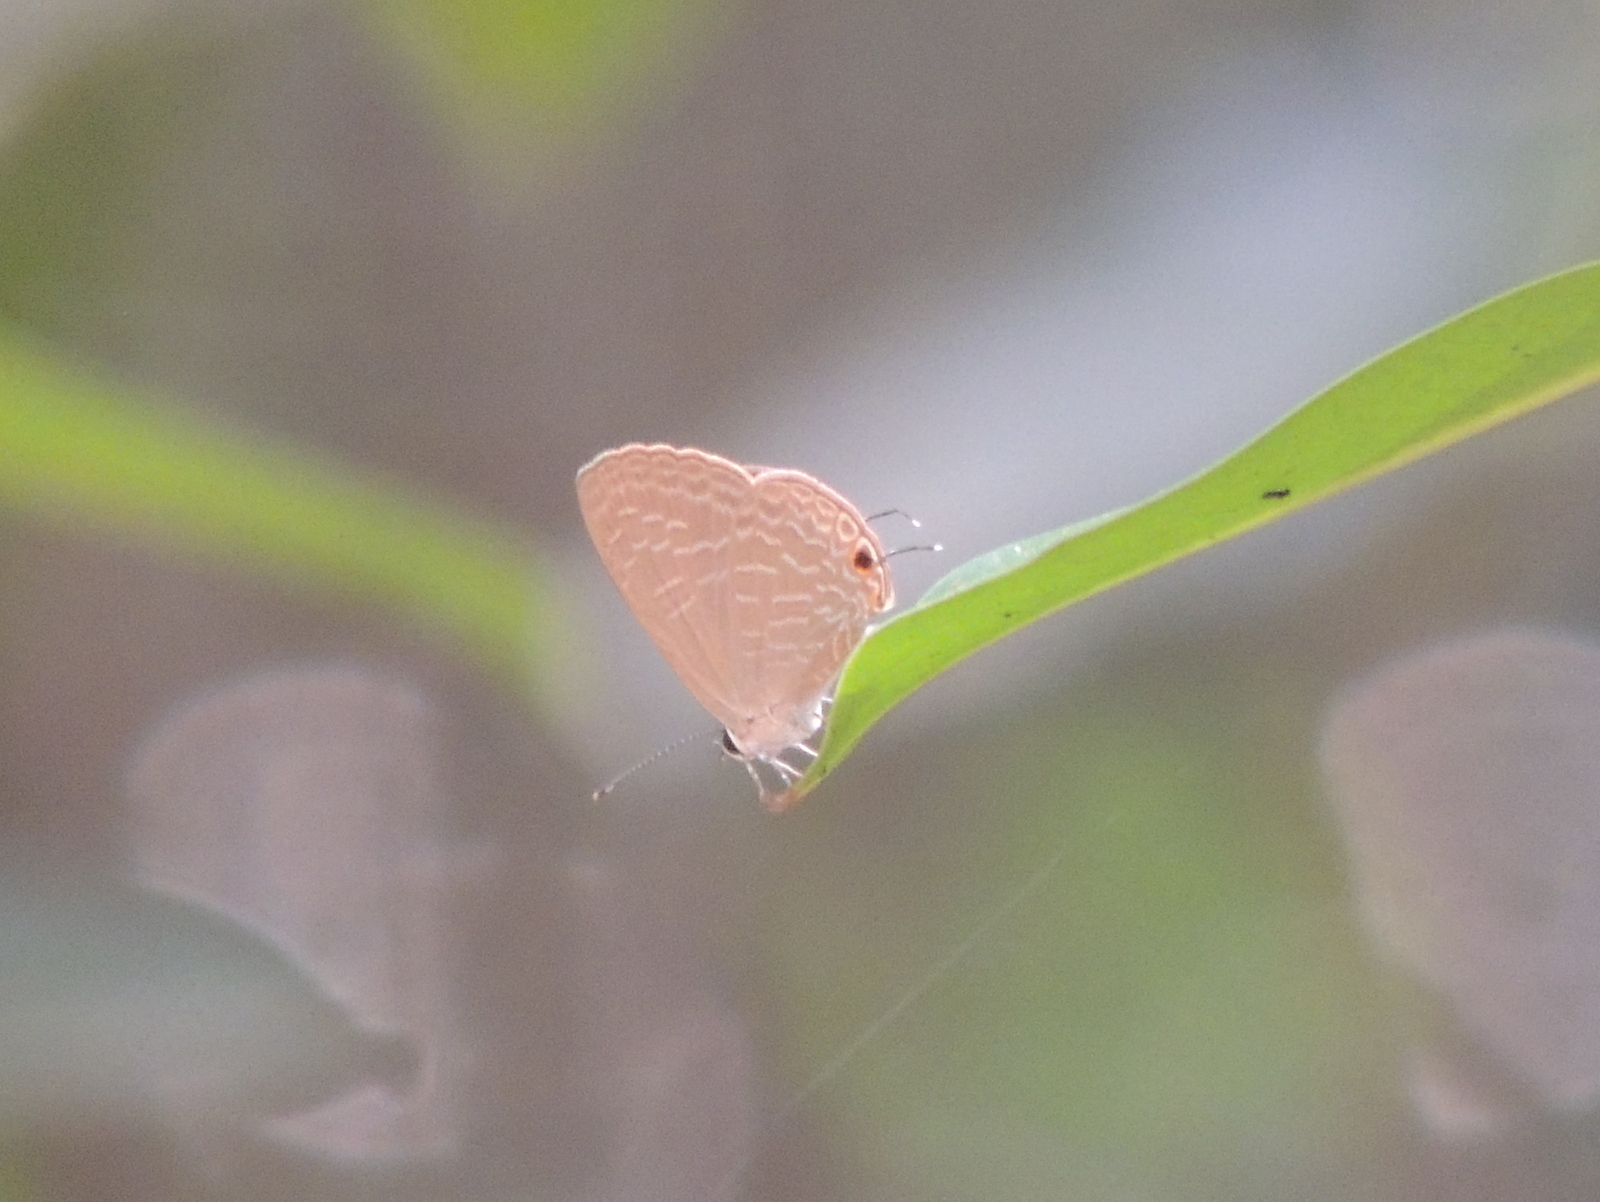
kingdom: Animalia
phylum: Arthropoda
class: Insecta
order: Lepidoptera
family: Lycaenidae
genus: Jamides
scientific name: Jamides bochus
